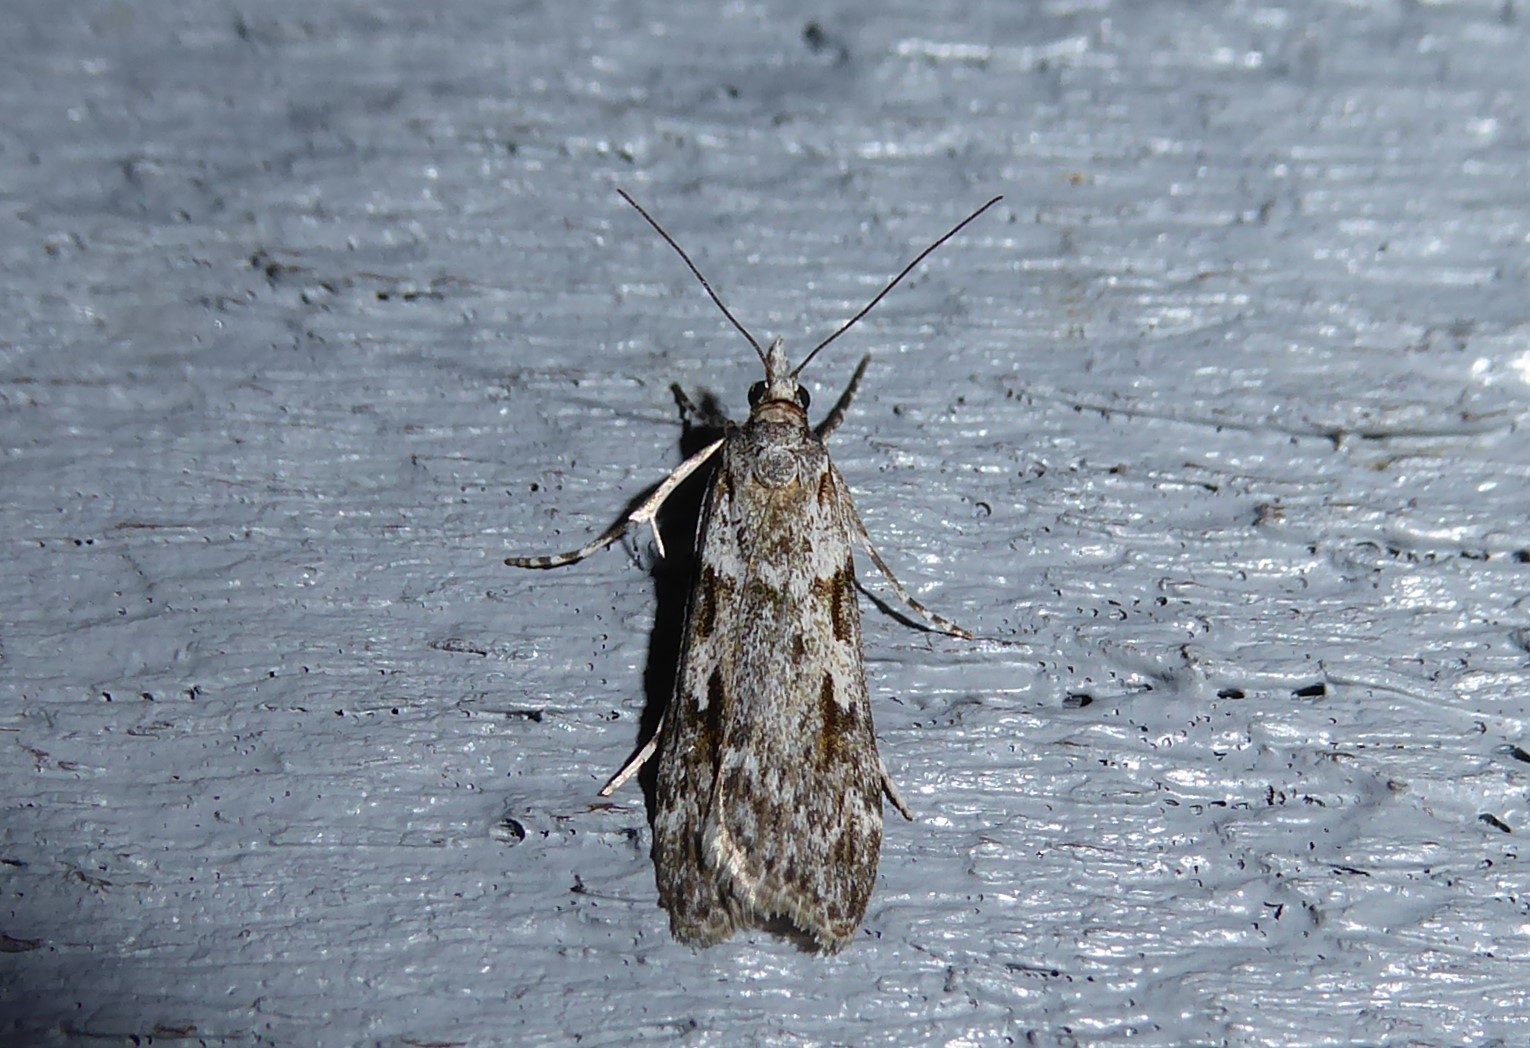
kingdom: Animalia
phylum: Arthropoda
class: Insecta
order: Lepidoptera
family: Crambidae
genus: Scoparia
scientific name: Scoparia halopis
